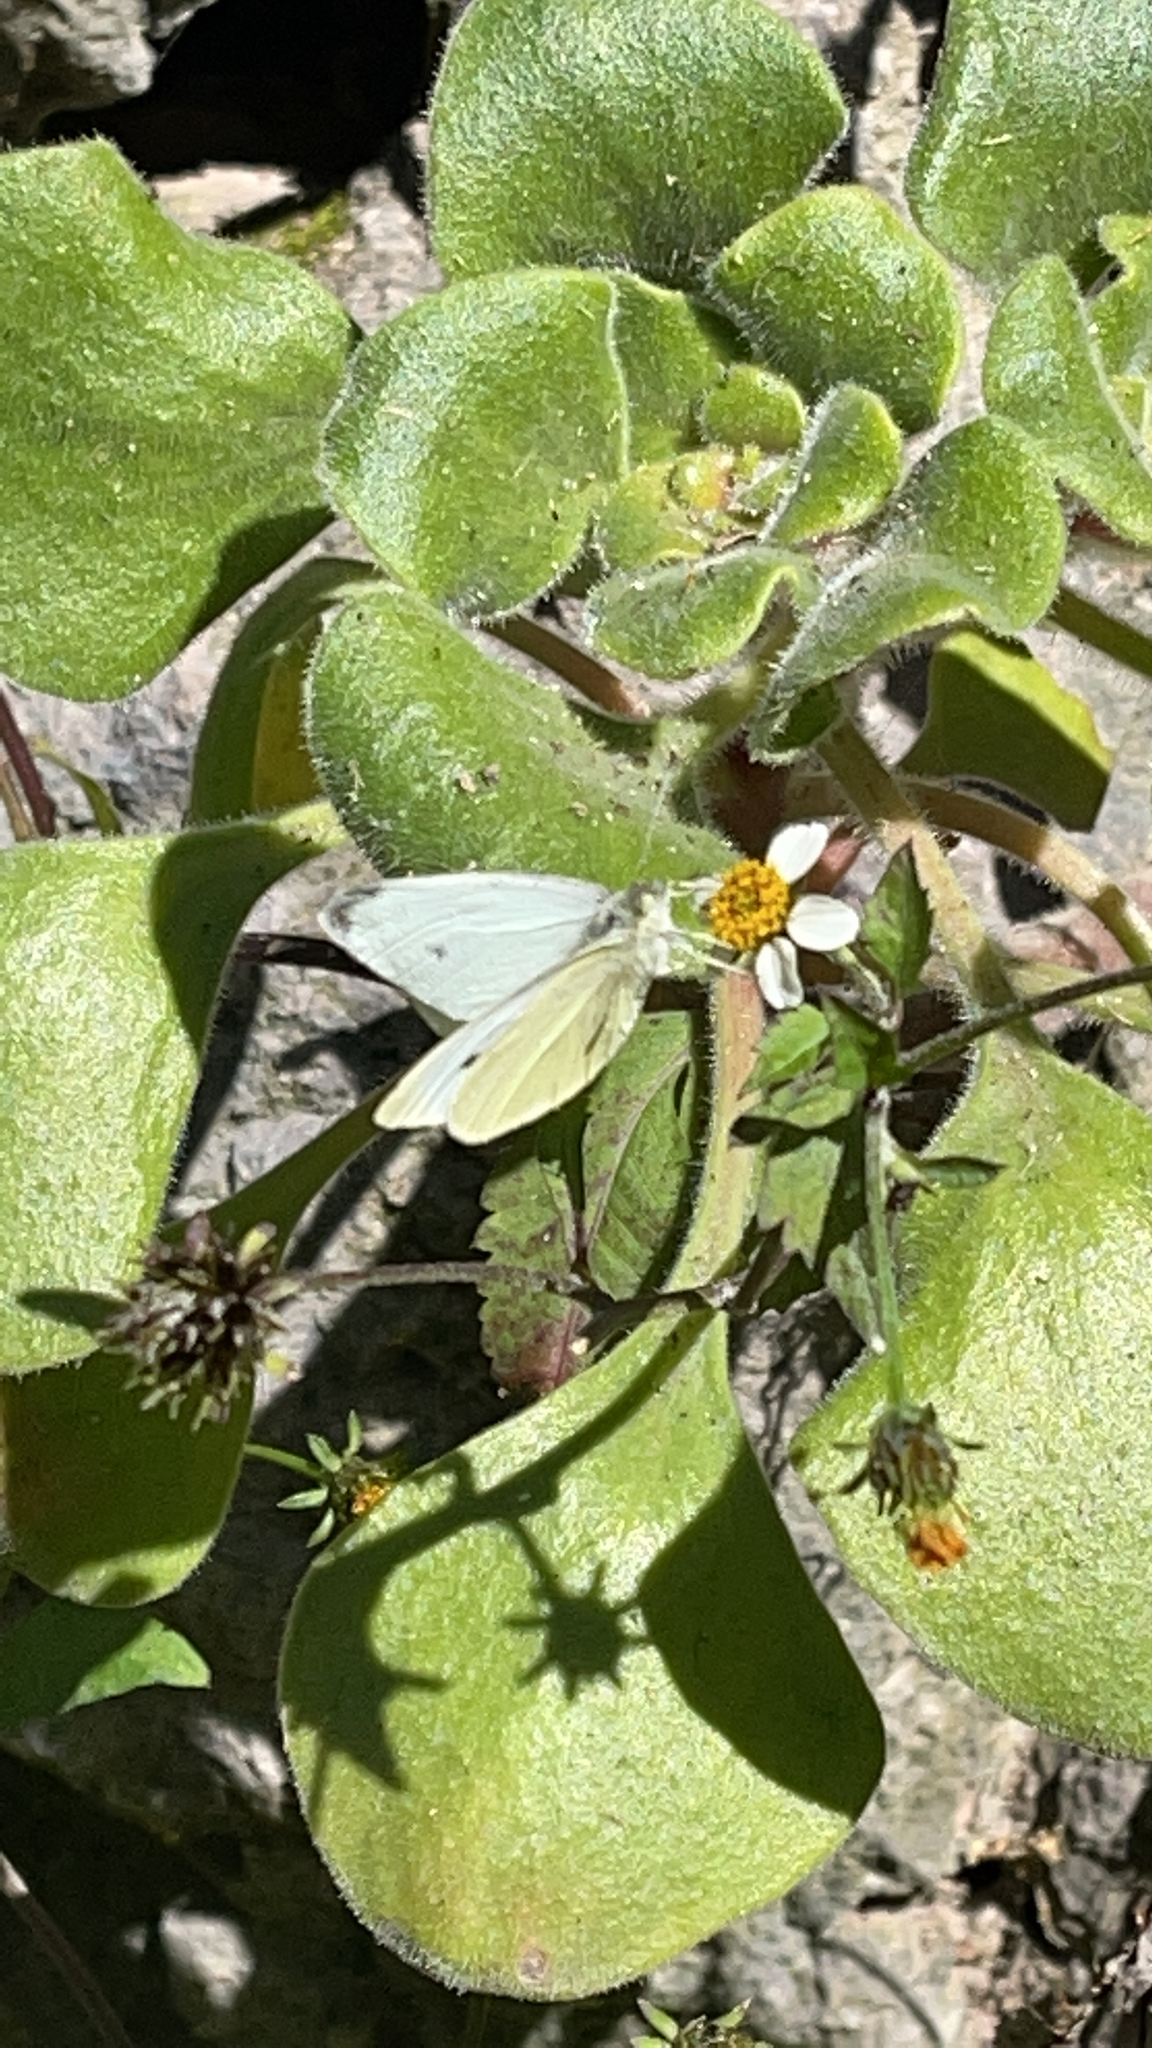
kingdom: Animalia
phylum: Arthropoda
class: Insecta
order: Lepidoptera
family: Pieridae
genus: Pieris
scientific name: Pieris rapae
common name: Small white
